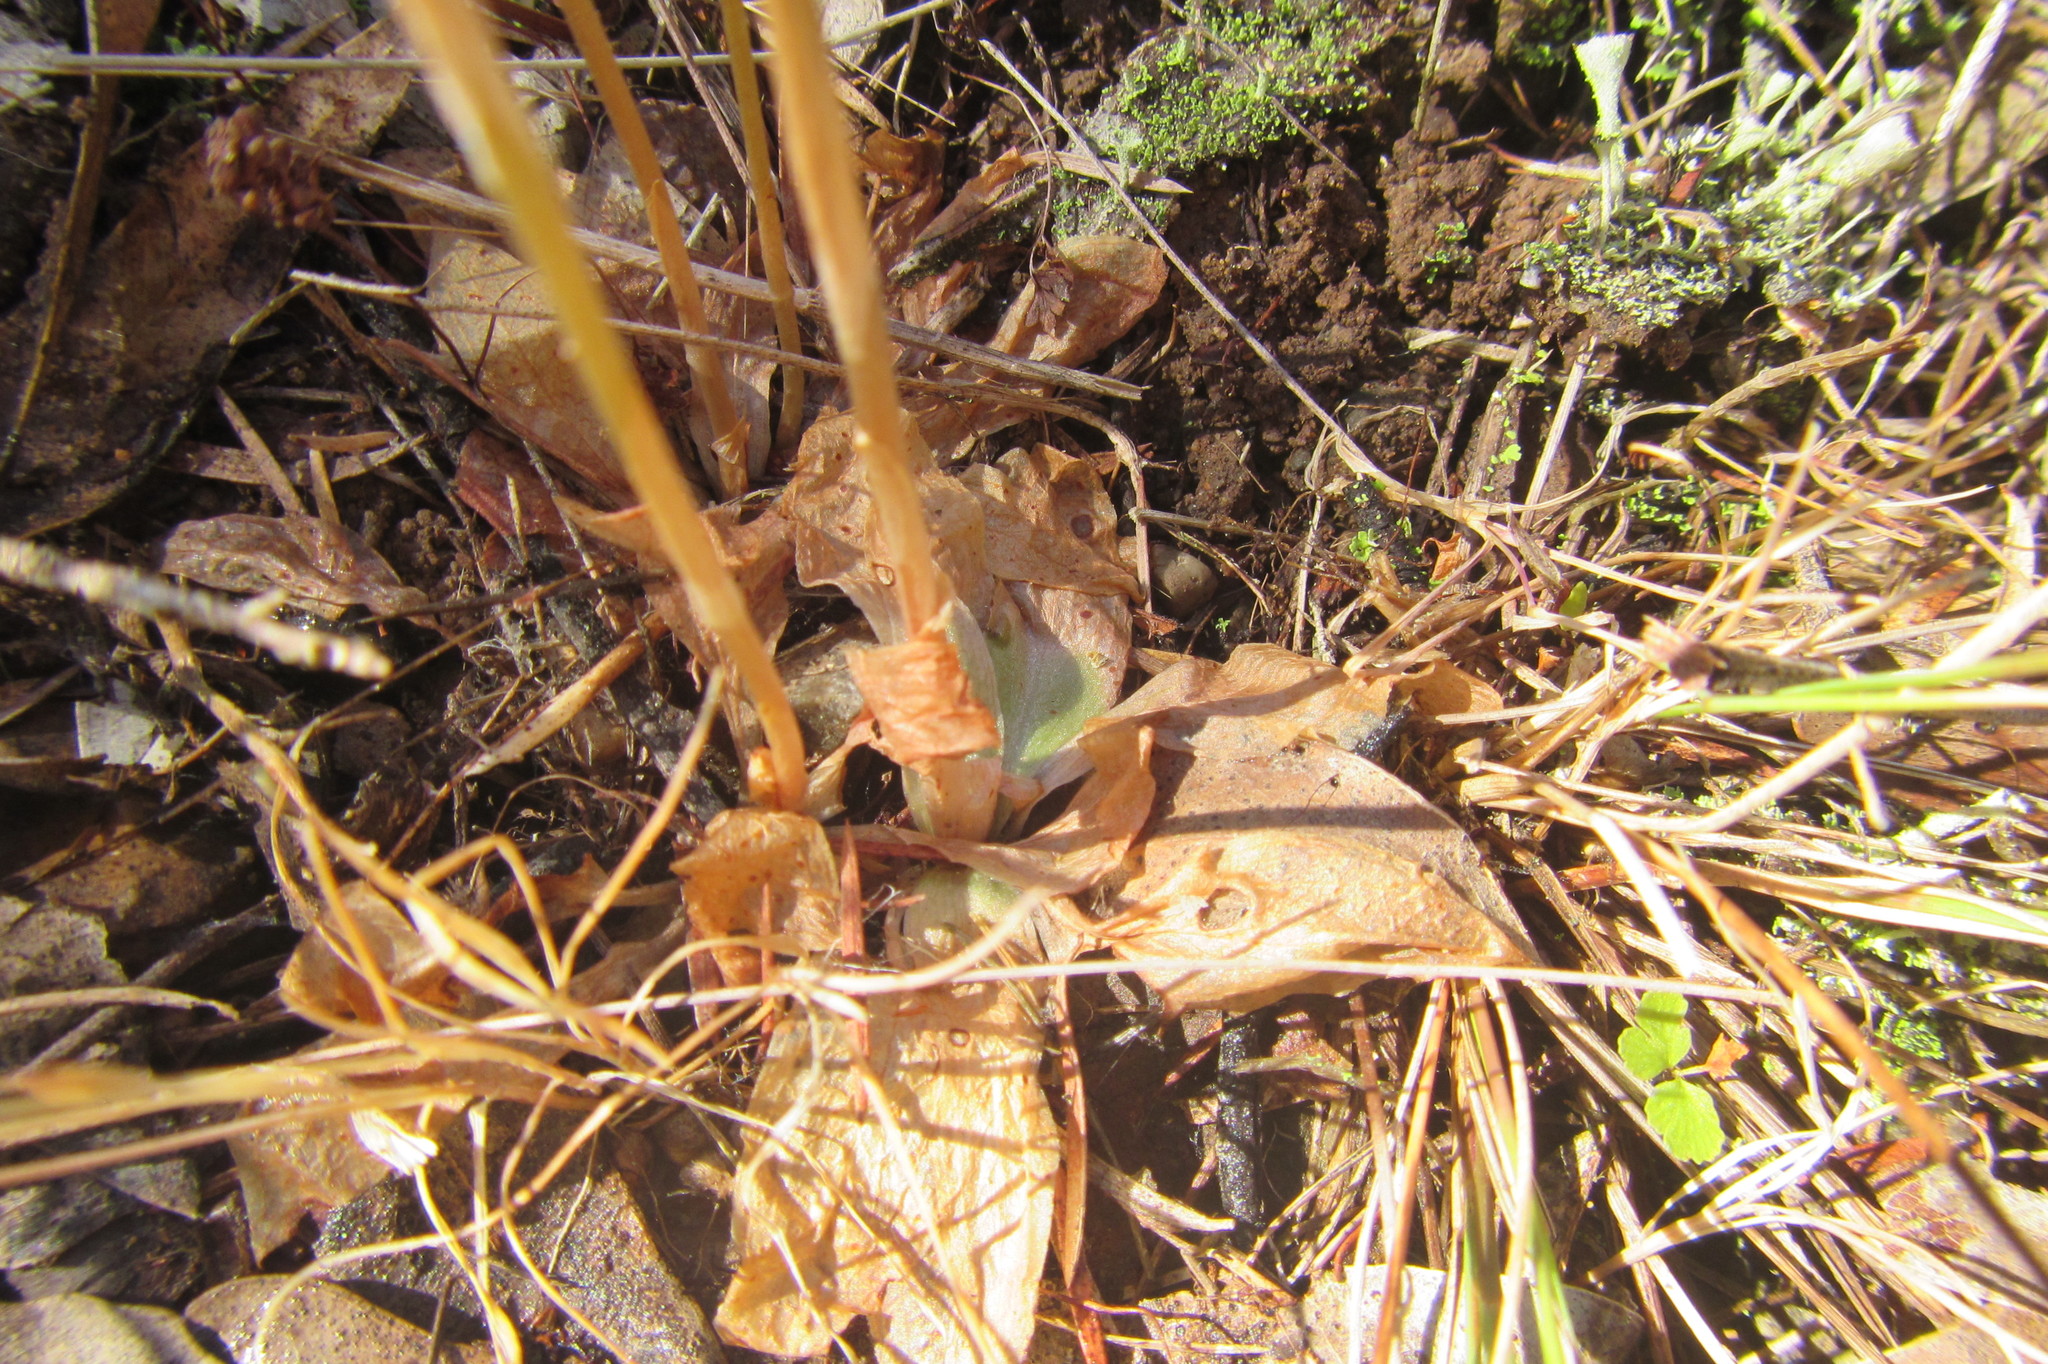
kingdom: Plantae
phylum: Tracheophyta
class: Liliopsida
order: Asparagales
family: Orchidaceae
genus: Pterostylis
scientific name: Pterostylis chaetophora
